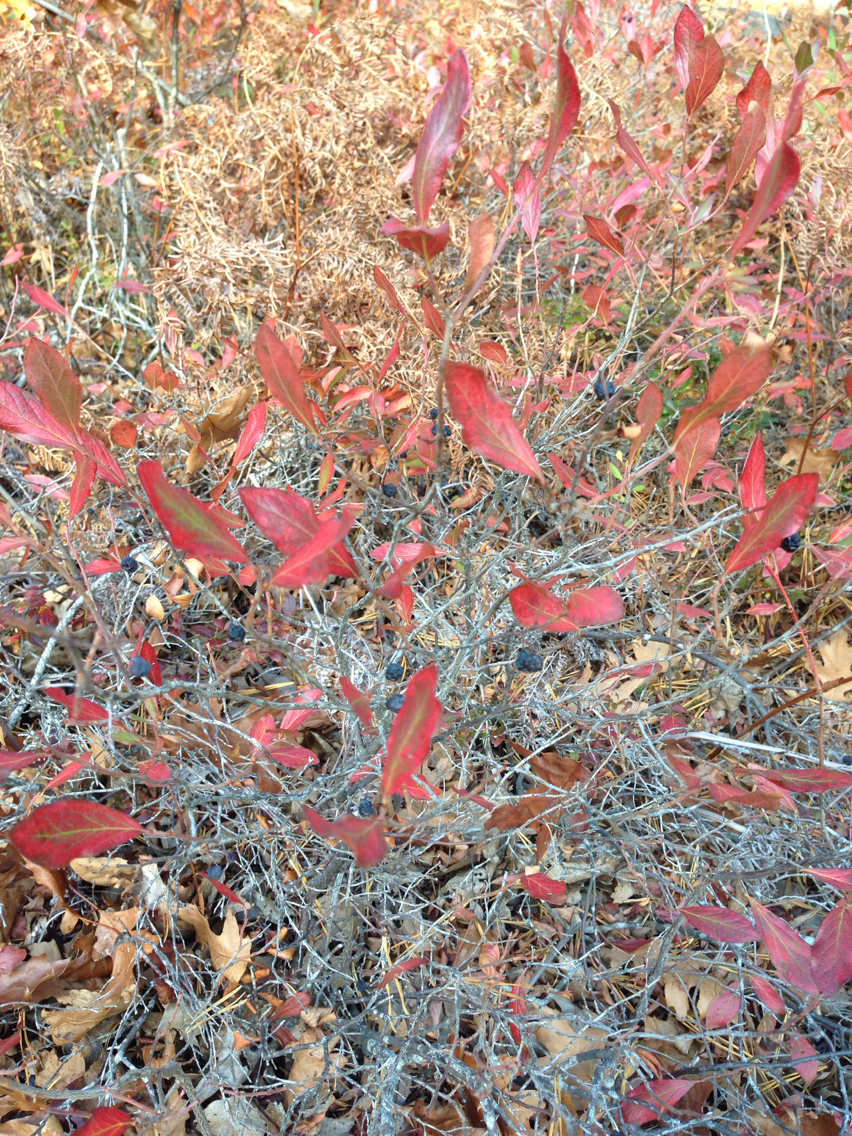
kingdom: Plantae
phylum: Tracheophyta
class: Magnoliopsida
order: Ericales
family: Ericaceae
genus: Gaylussacia
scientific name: Gaylussacia baccata
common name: Black huckleberry
